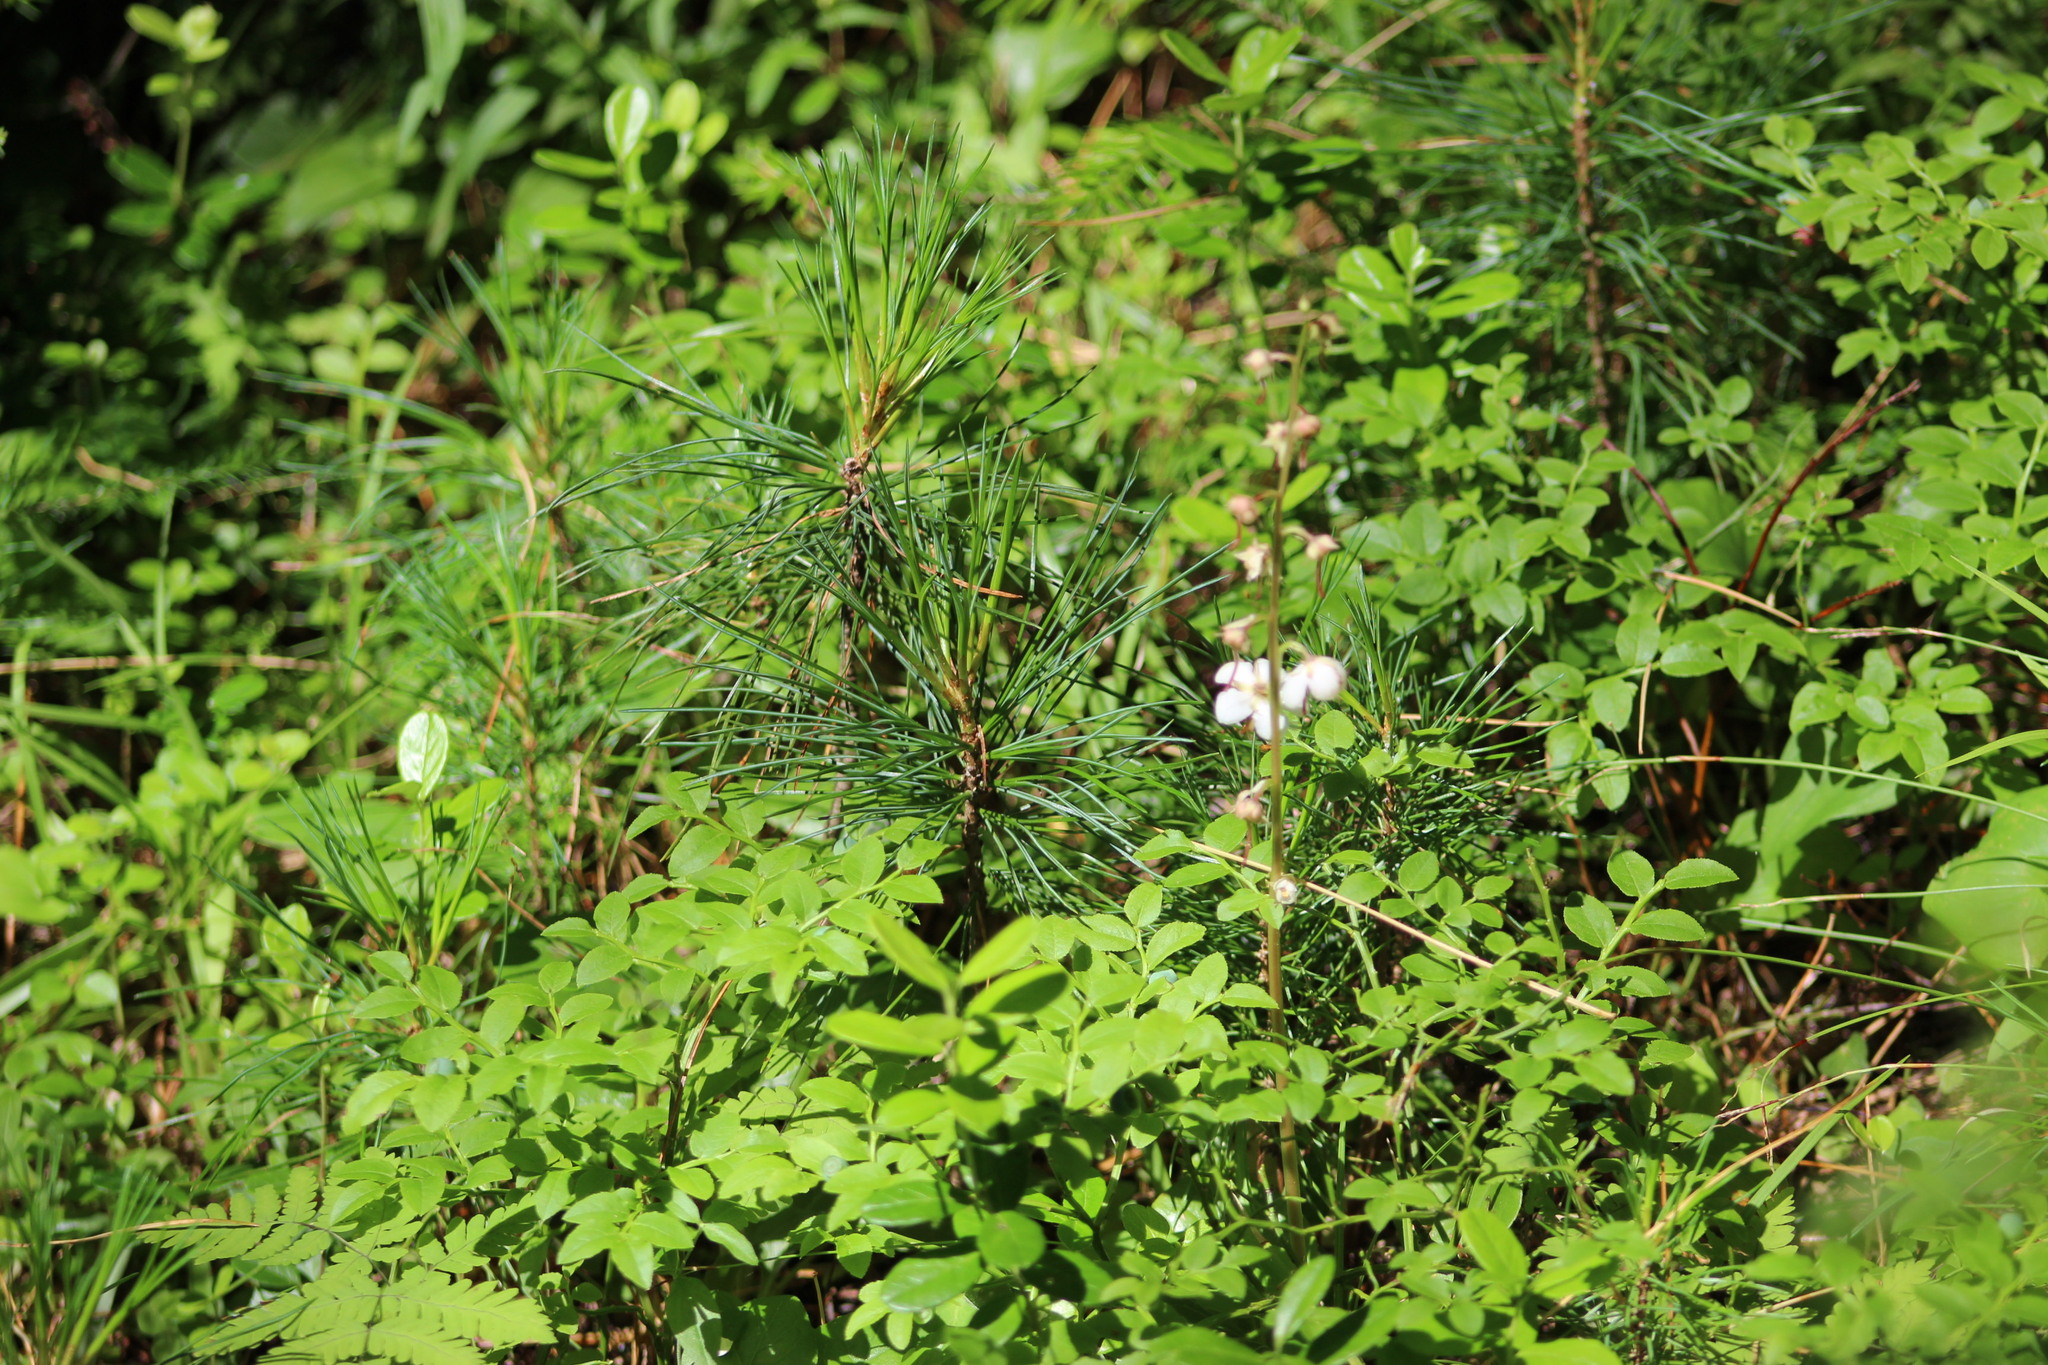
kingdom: Plantae
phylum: Tracheophyta
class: Magnoliopsida
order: Ericales
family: Ericaceae
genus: Pyrola
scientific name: Pyrola rotundifolia
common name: Round-leaved wintergreen
